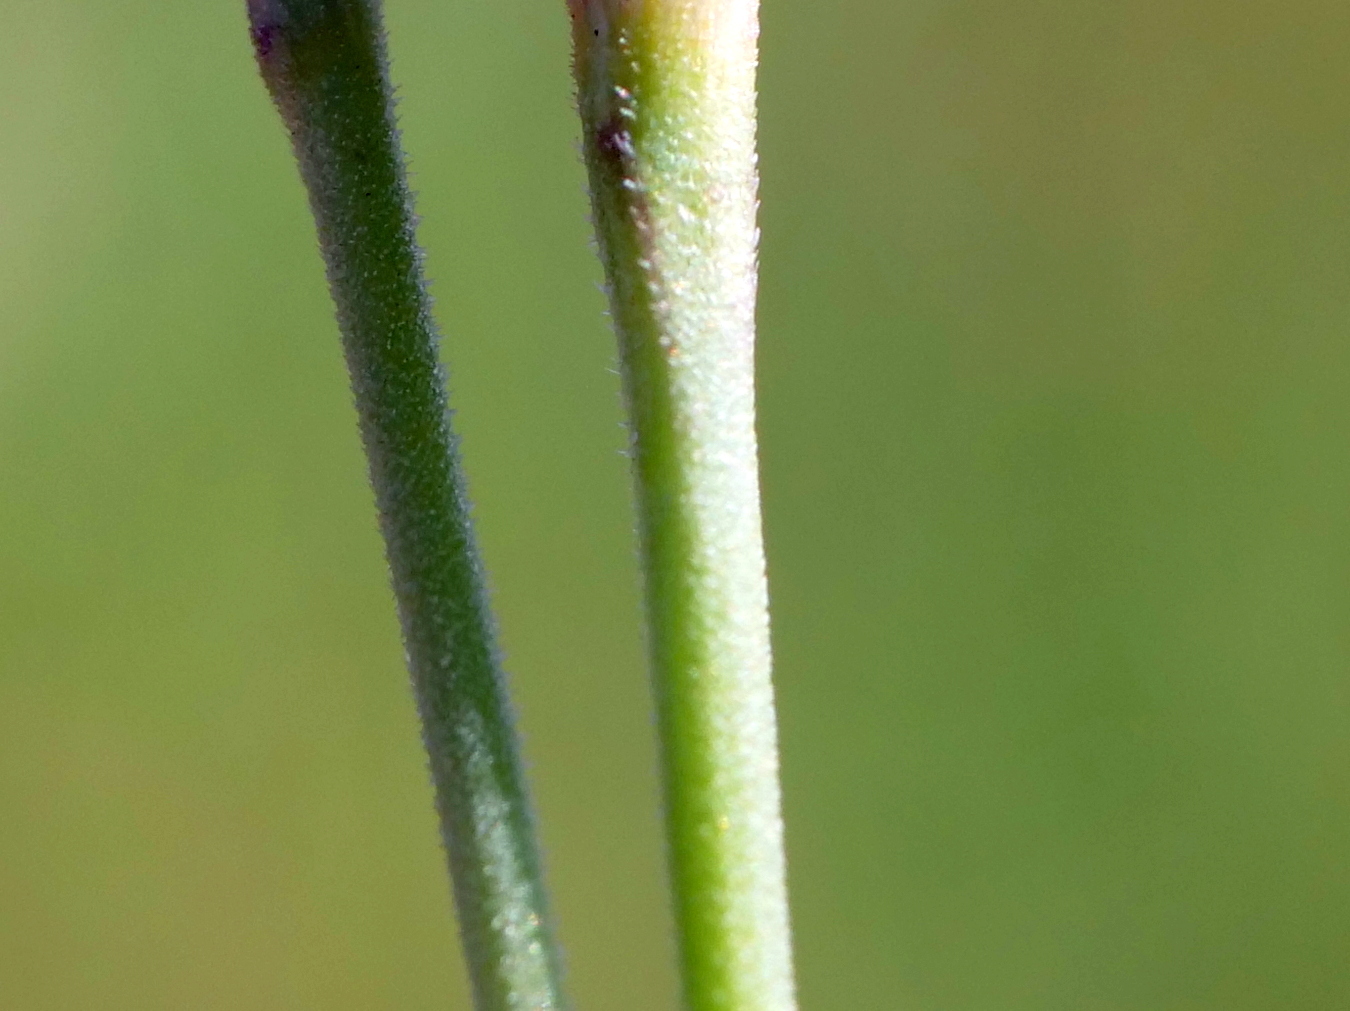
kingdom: Plantae
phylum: Tracheophyta
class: Magnoliopsida
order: Caryophyllales
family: Caryophyllaceae
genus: Dianthus
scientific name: Dianthus deltoides
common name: Maiden pink
